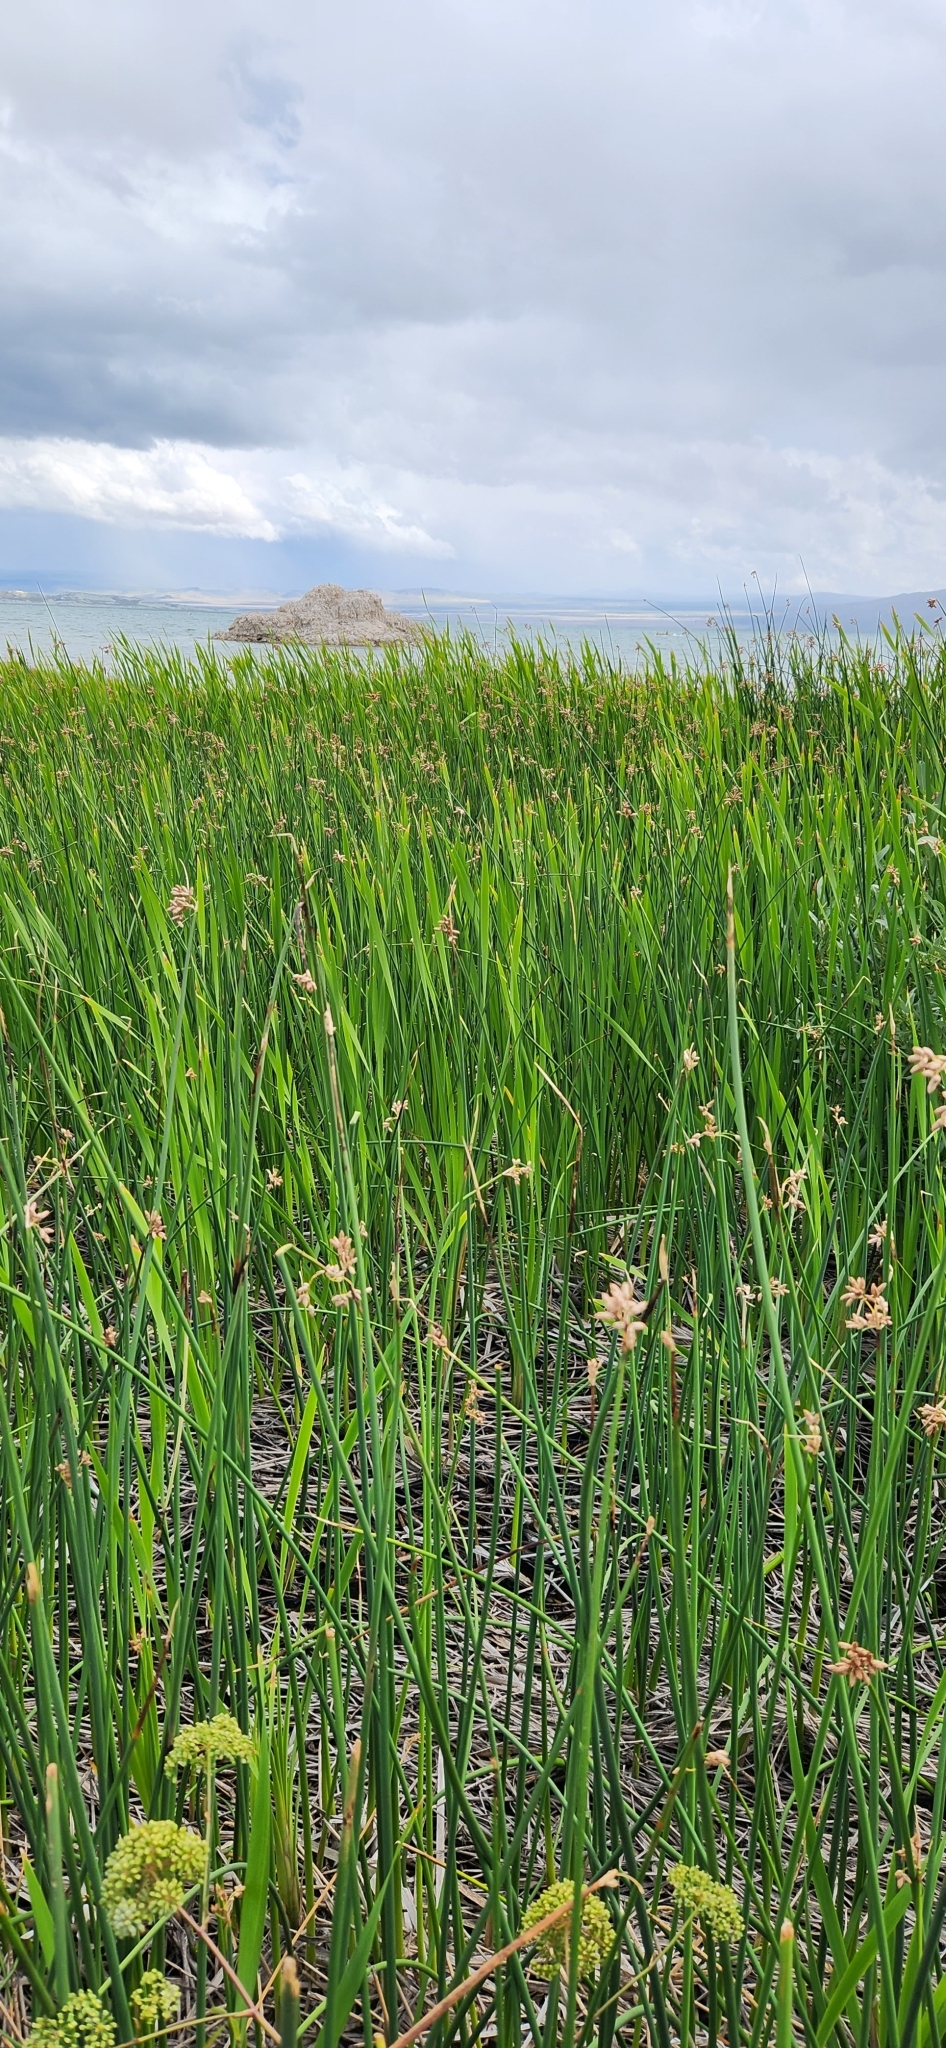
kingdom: Plantae
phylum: Tracheophyta
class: Liliopsida
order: Poales
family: Cyperaceae
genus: Schoenoplectus
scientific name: Schoenoplectus acutus
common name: Hardstem bulrush
